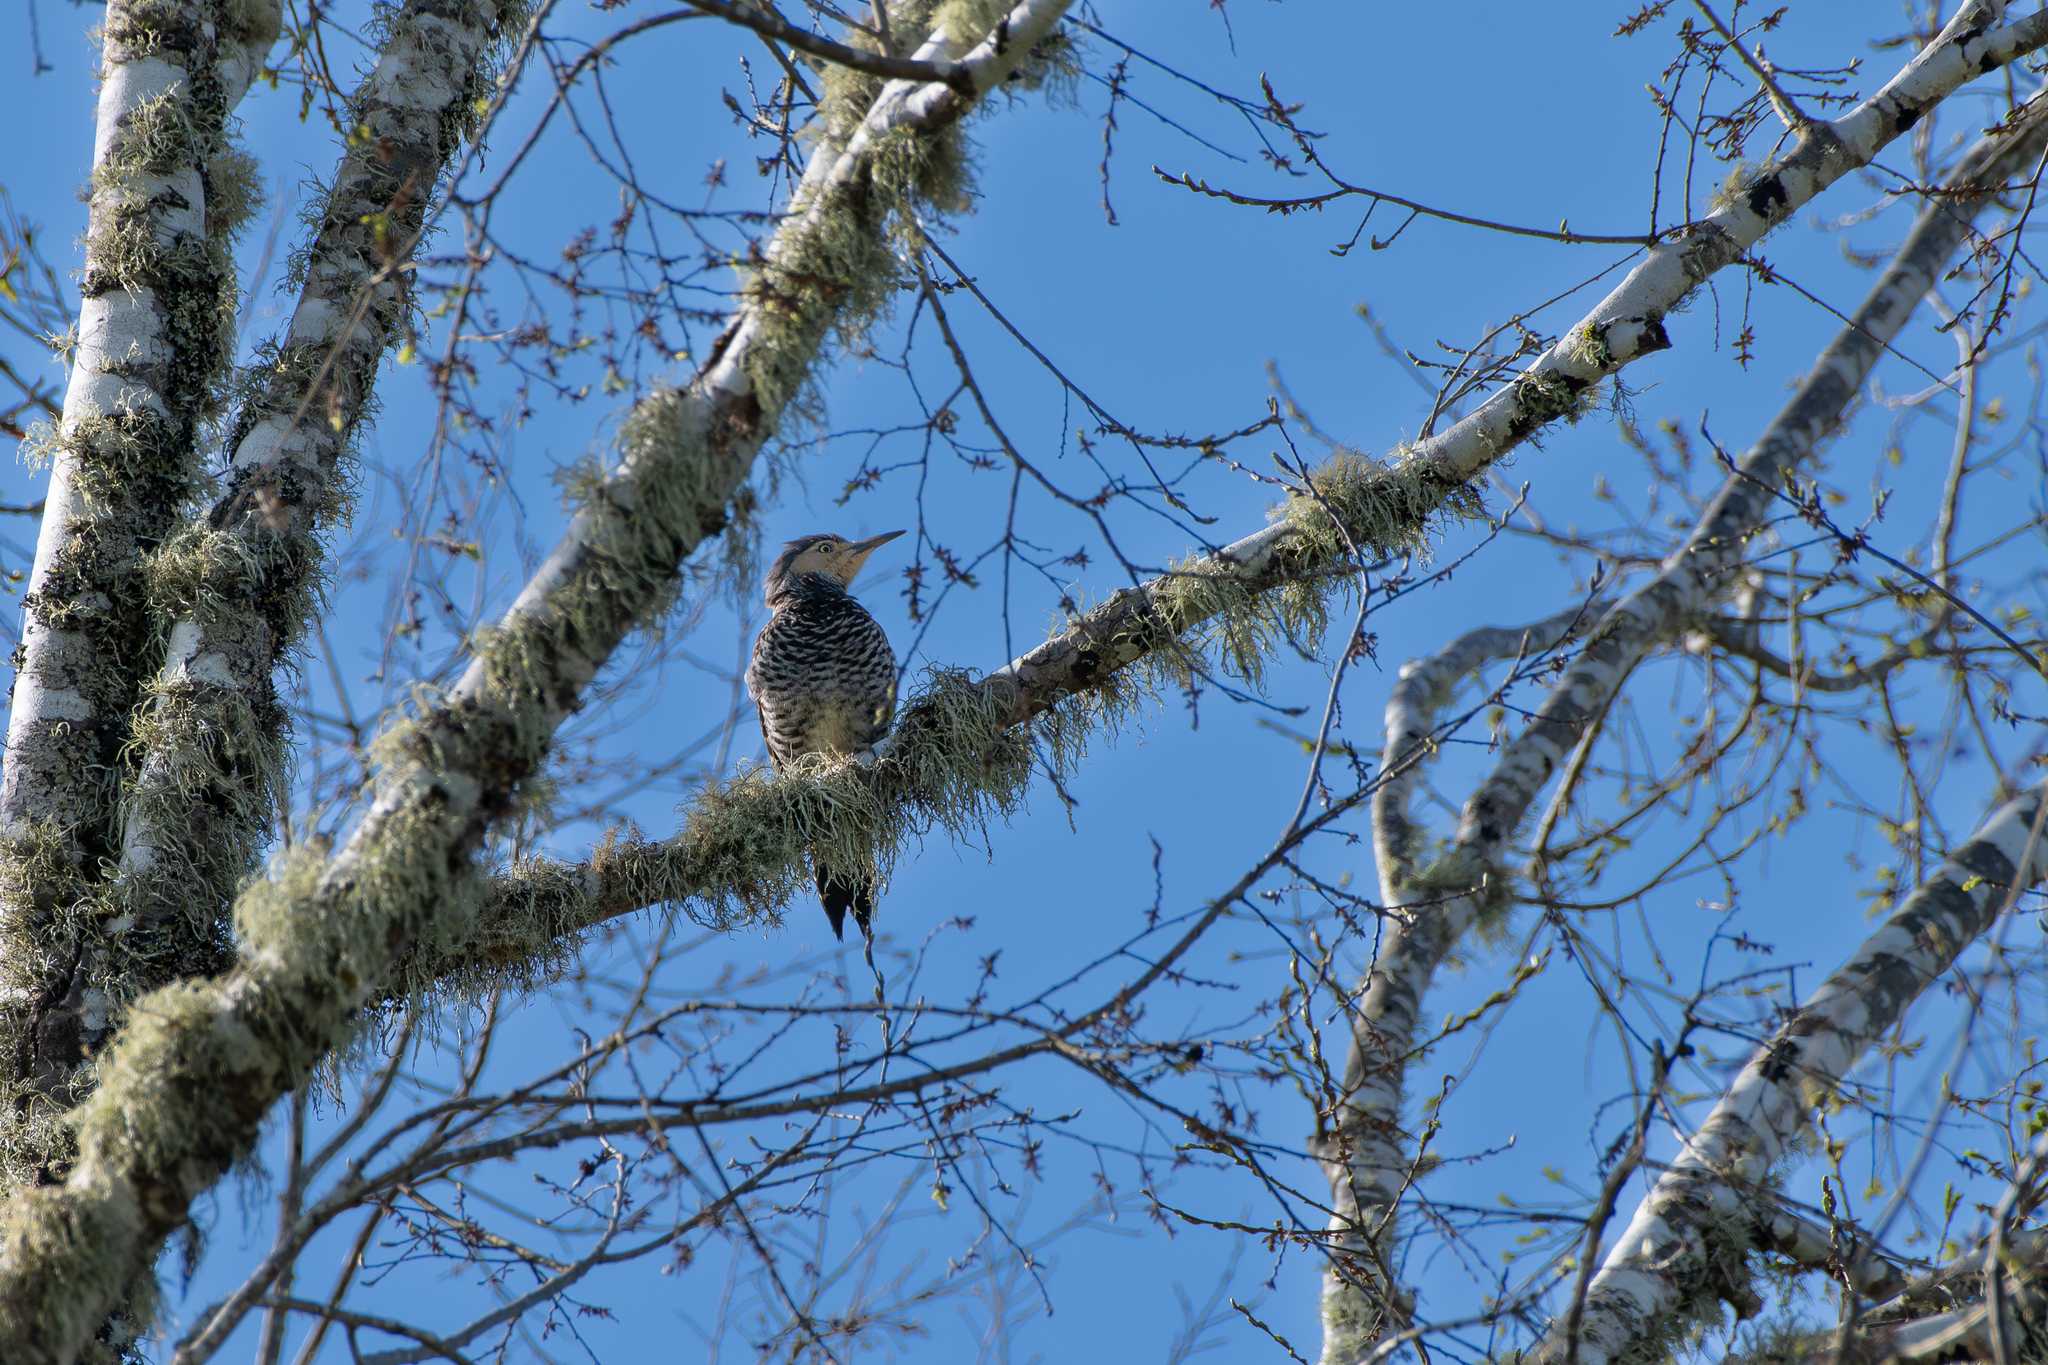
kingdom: Animalia
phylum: Chordata
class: Aves
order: Piciformes
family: Picidae
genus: Colaptes
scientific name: Colaptes pitius
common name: Chilean flicker
